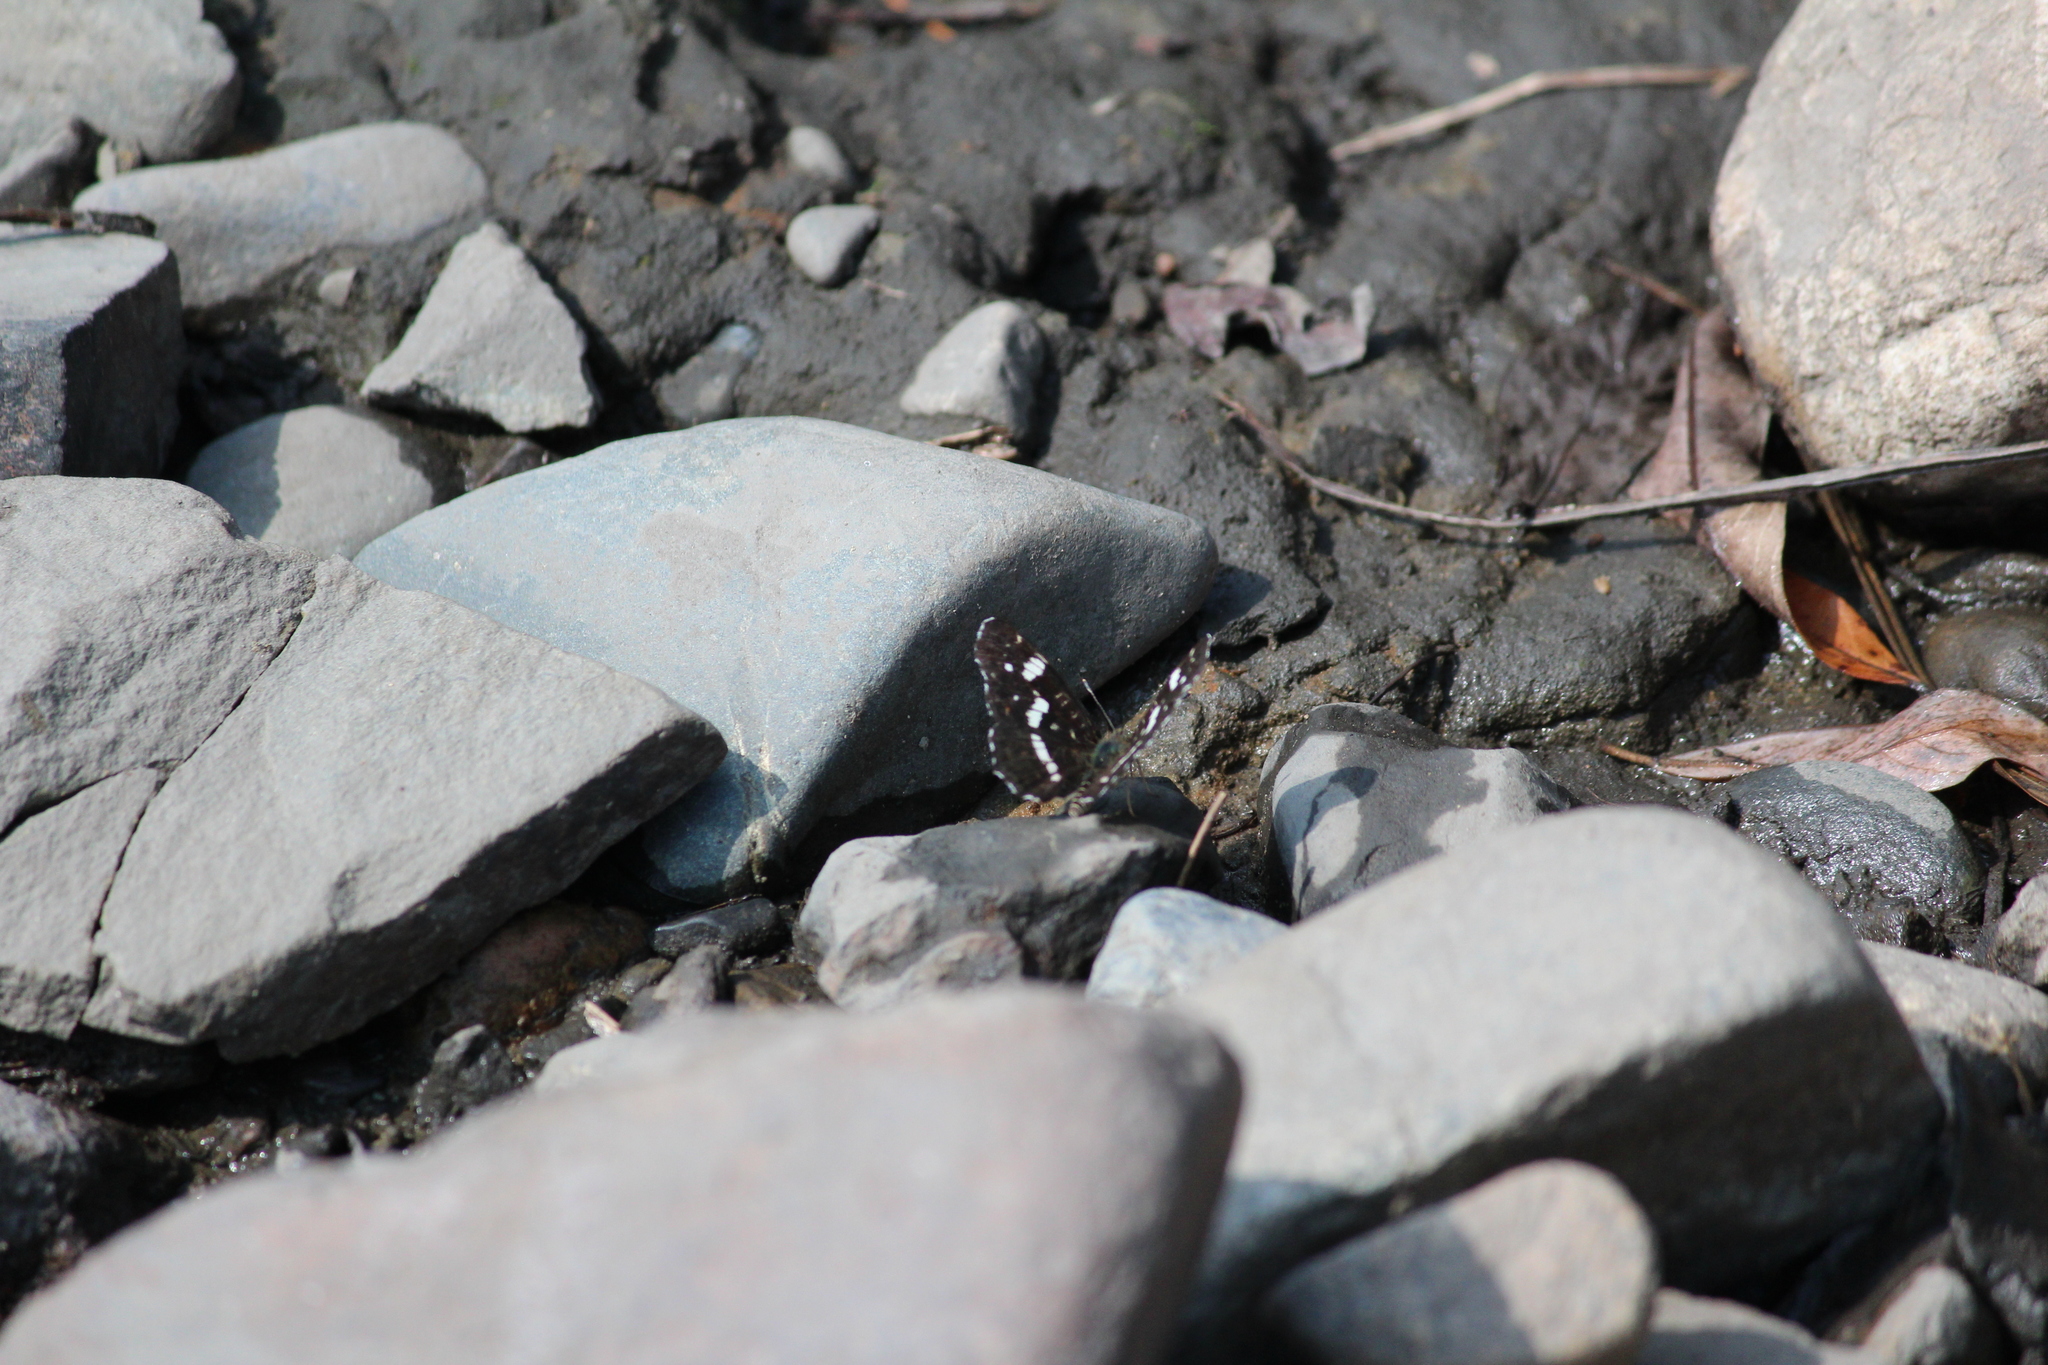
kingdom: Animalia
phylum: Arthropoda
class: Insecta
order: Lepidoptera
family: Nymphalidae
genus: Araschnia
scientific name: Araschnia levana
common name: Map butterfly
